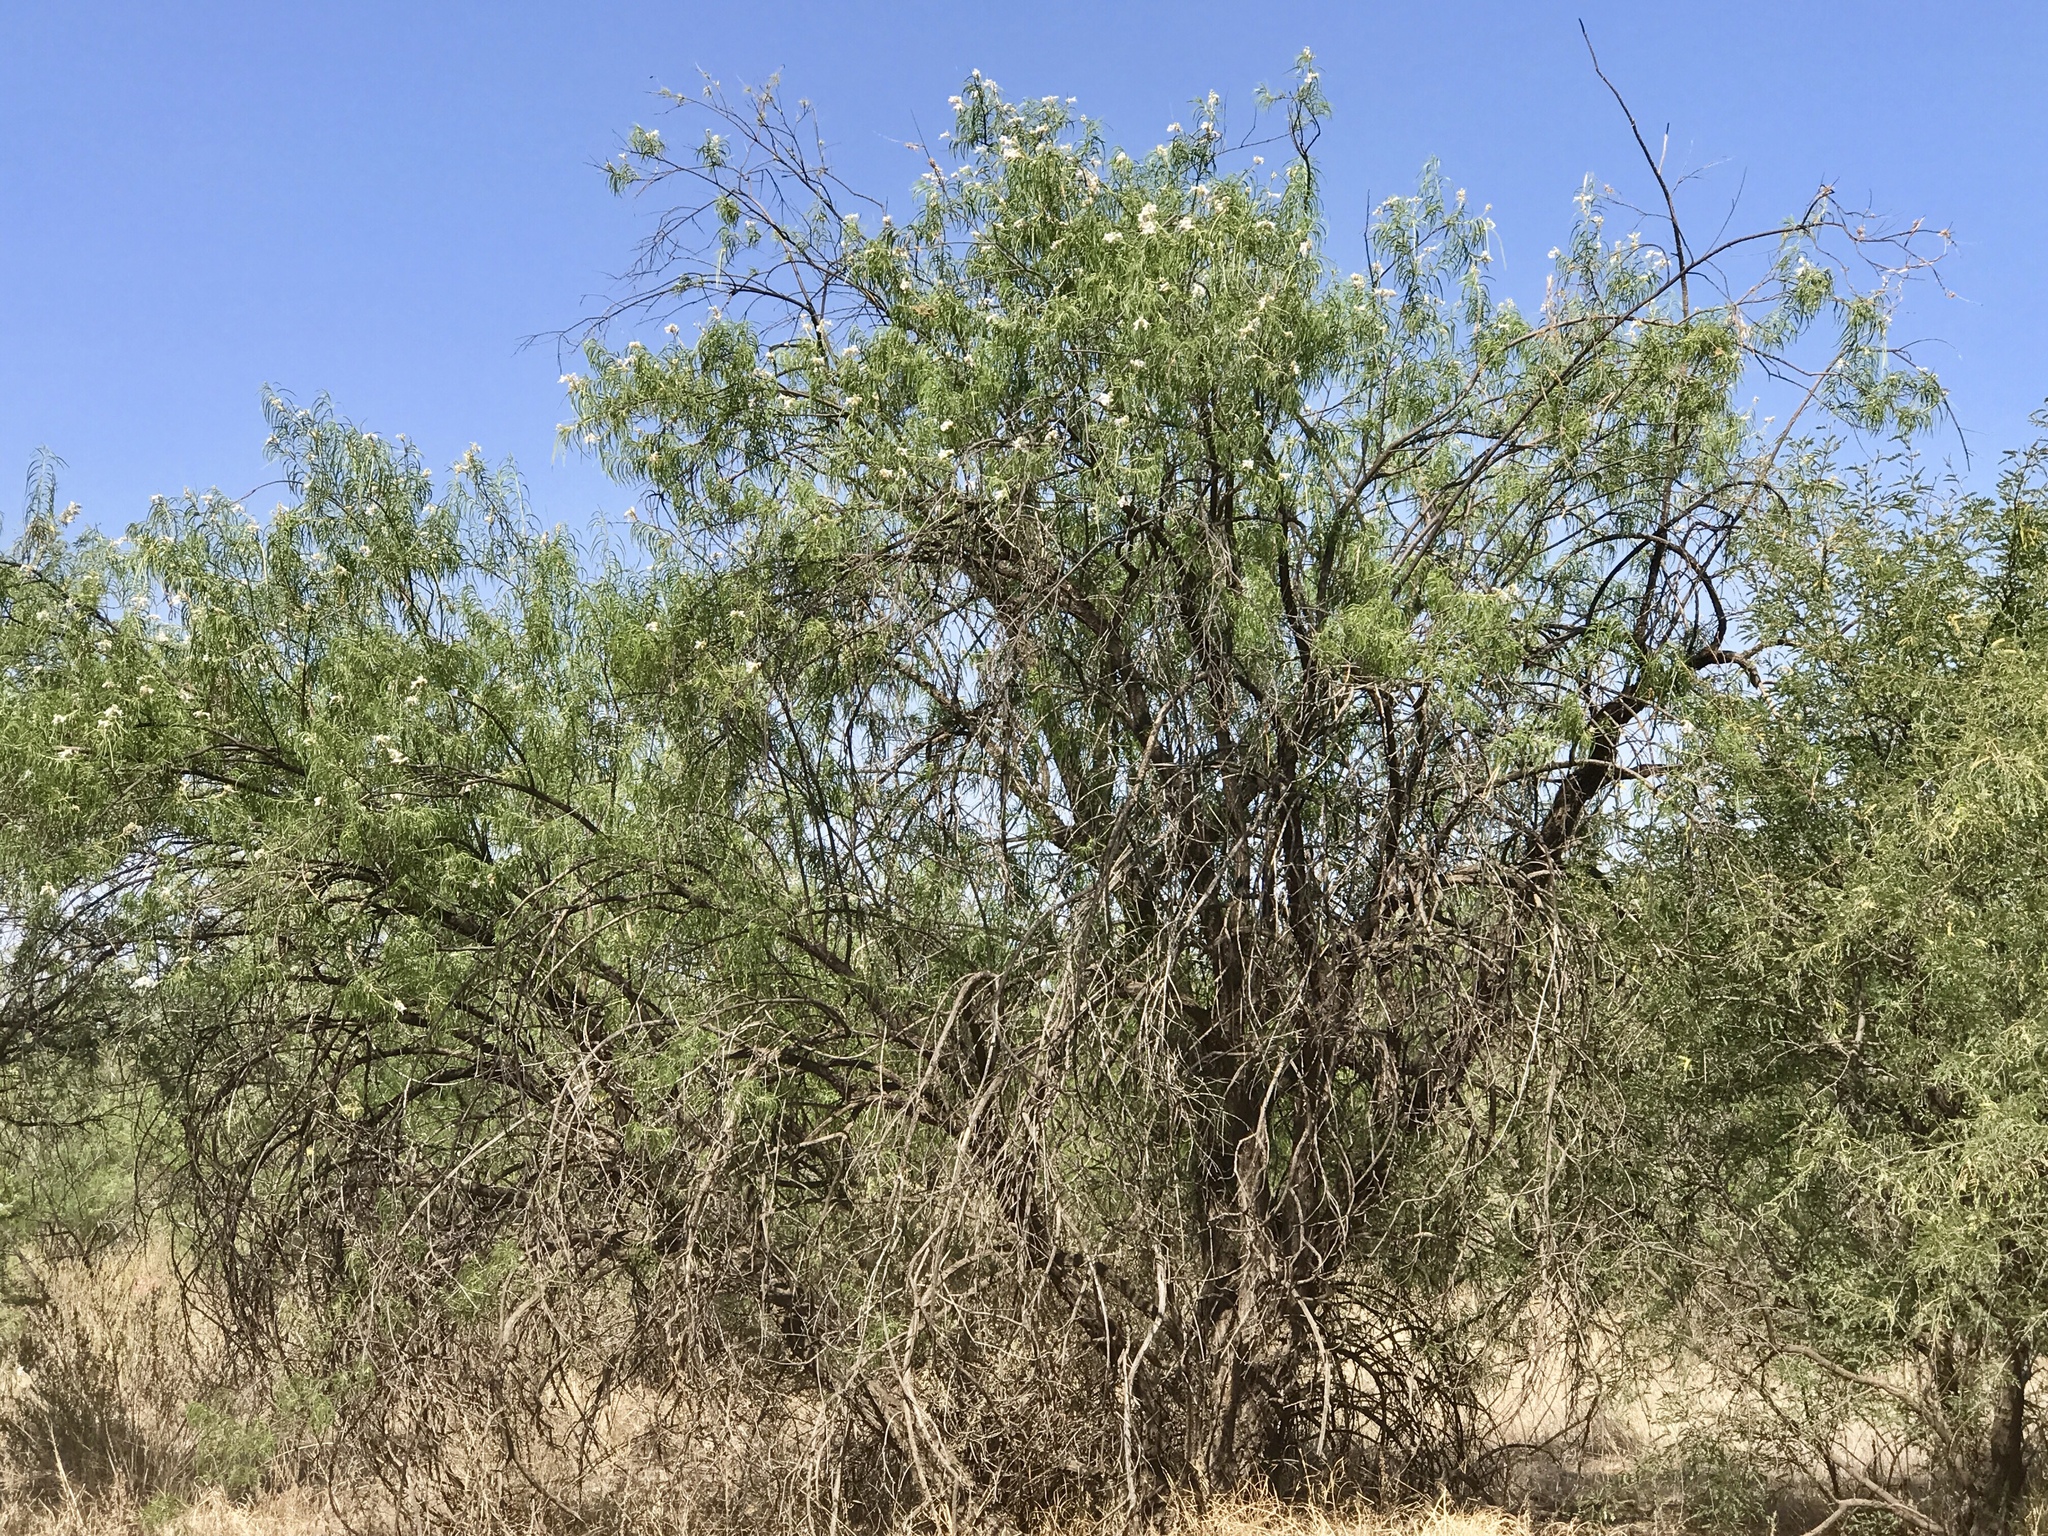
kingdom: Plantae
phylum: Tracheophyta
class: Magnoliopsida
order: Lamiales
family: Bignoniaceae
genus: Chilopsis
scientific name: Chilopsis linearis
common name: Desert-willow
